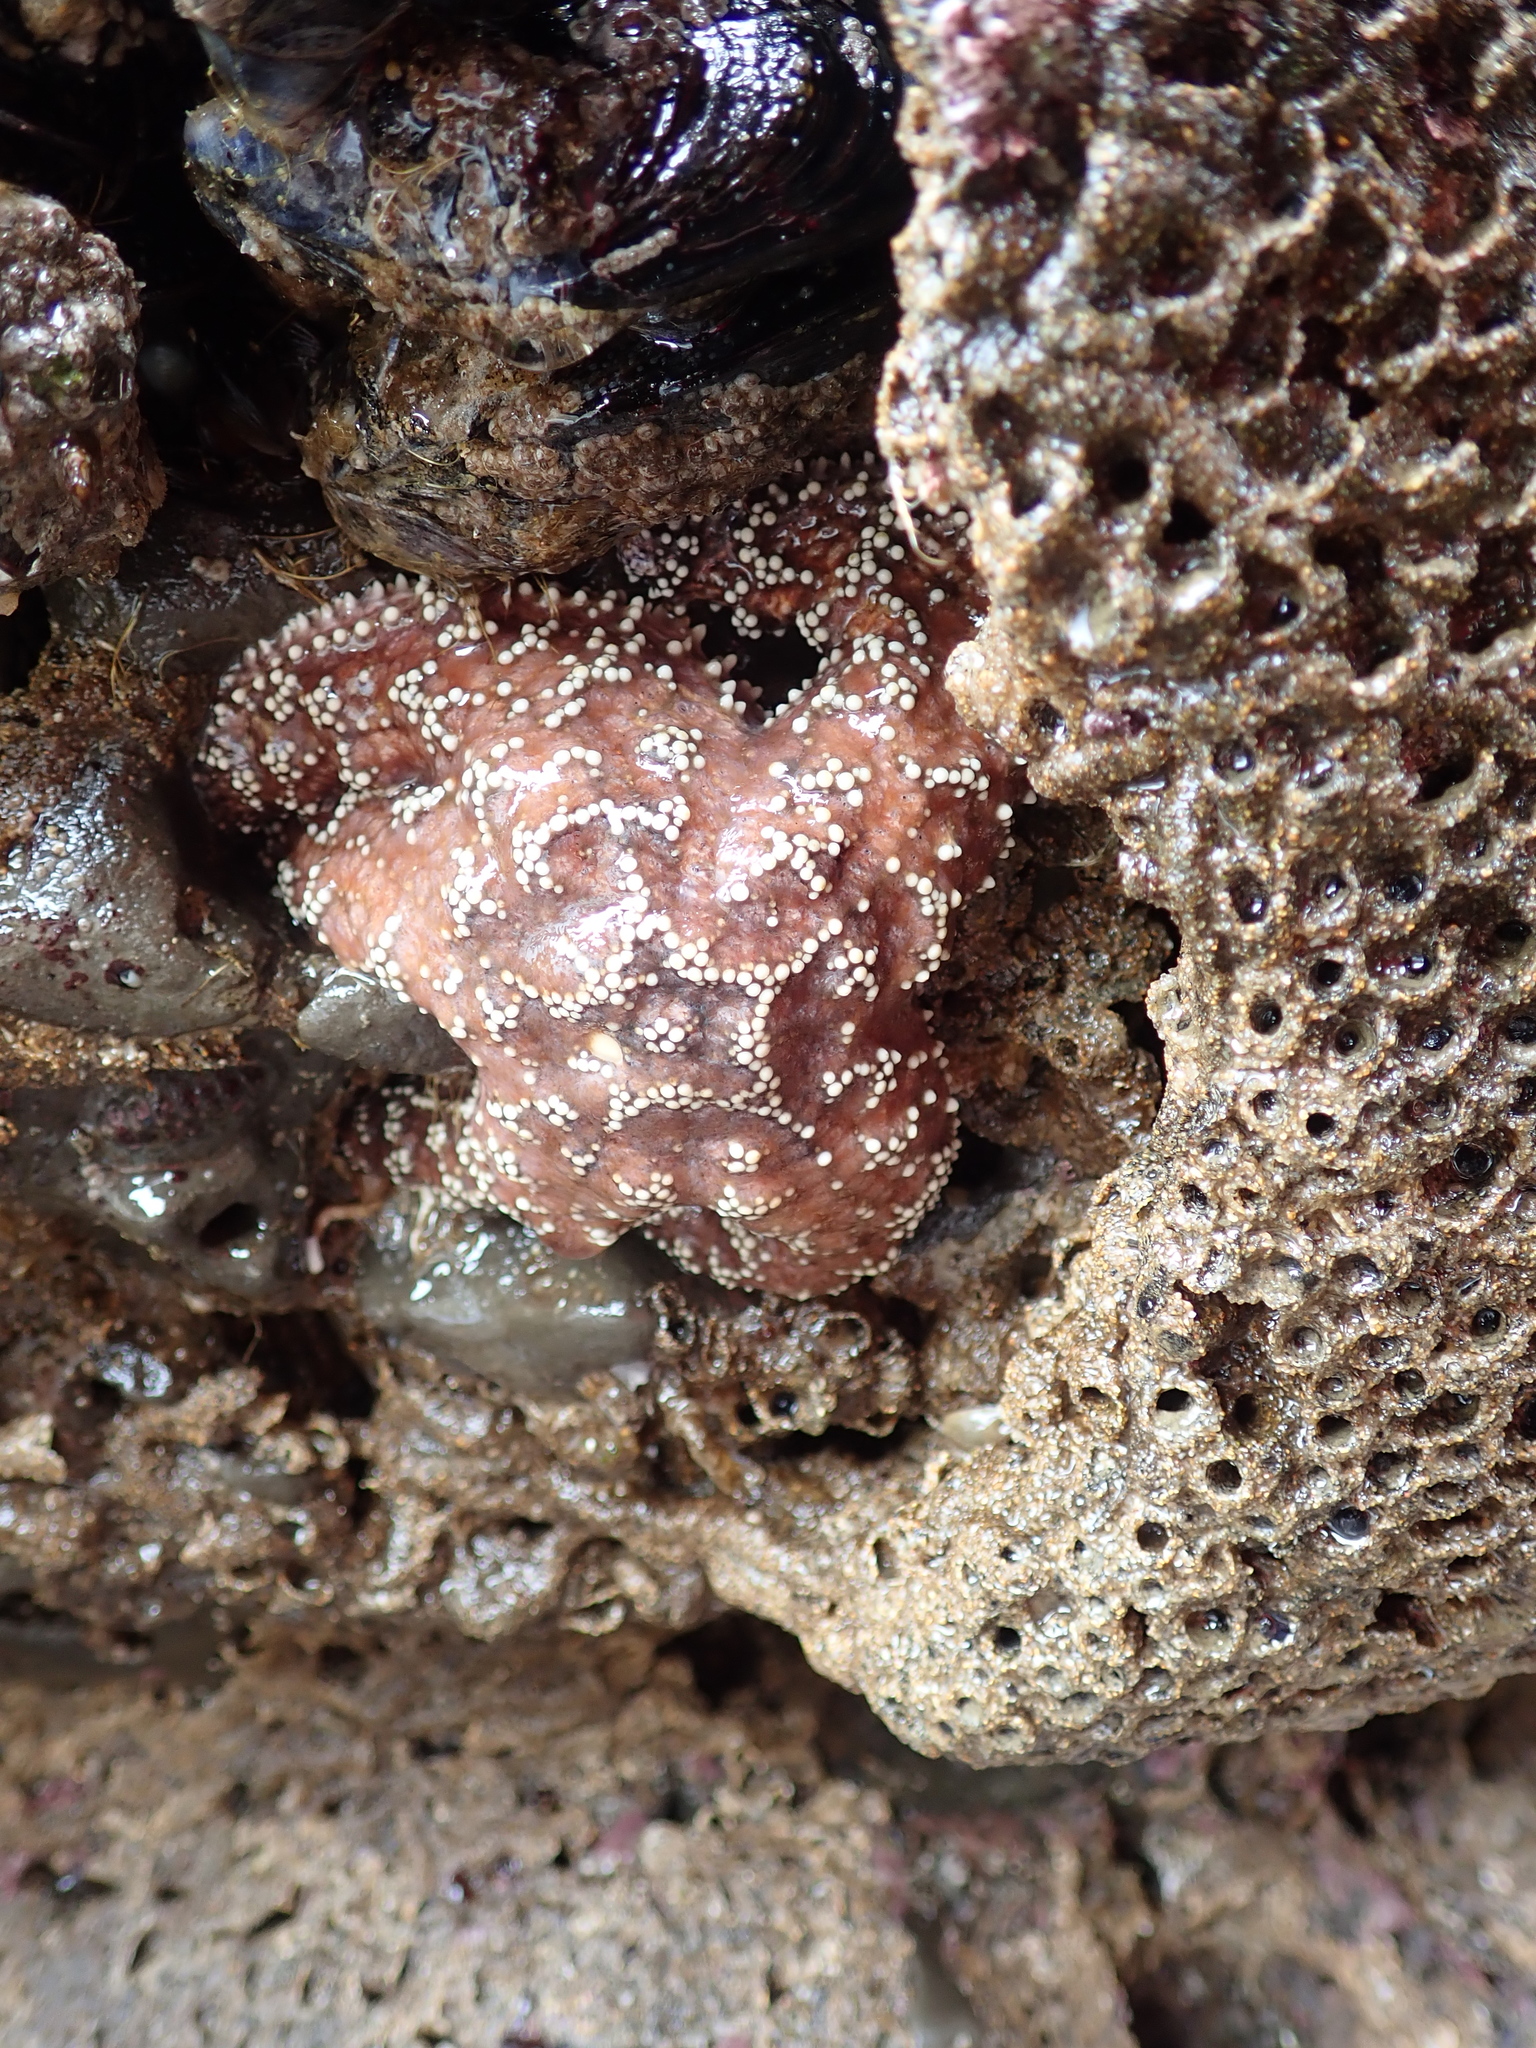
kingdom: Animalia
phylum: Echinodermata
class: Asteroidea
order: Forcipulatida
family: Asteriidae
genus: Pisaster
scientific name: Pisaster ochraceus
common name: Ochre stars
